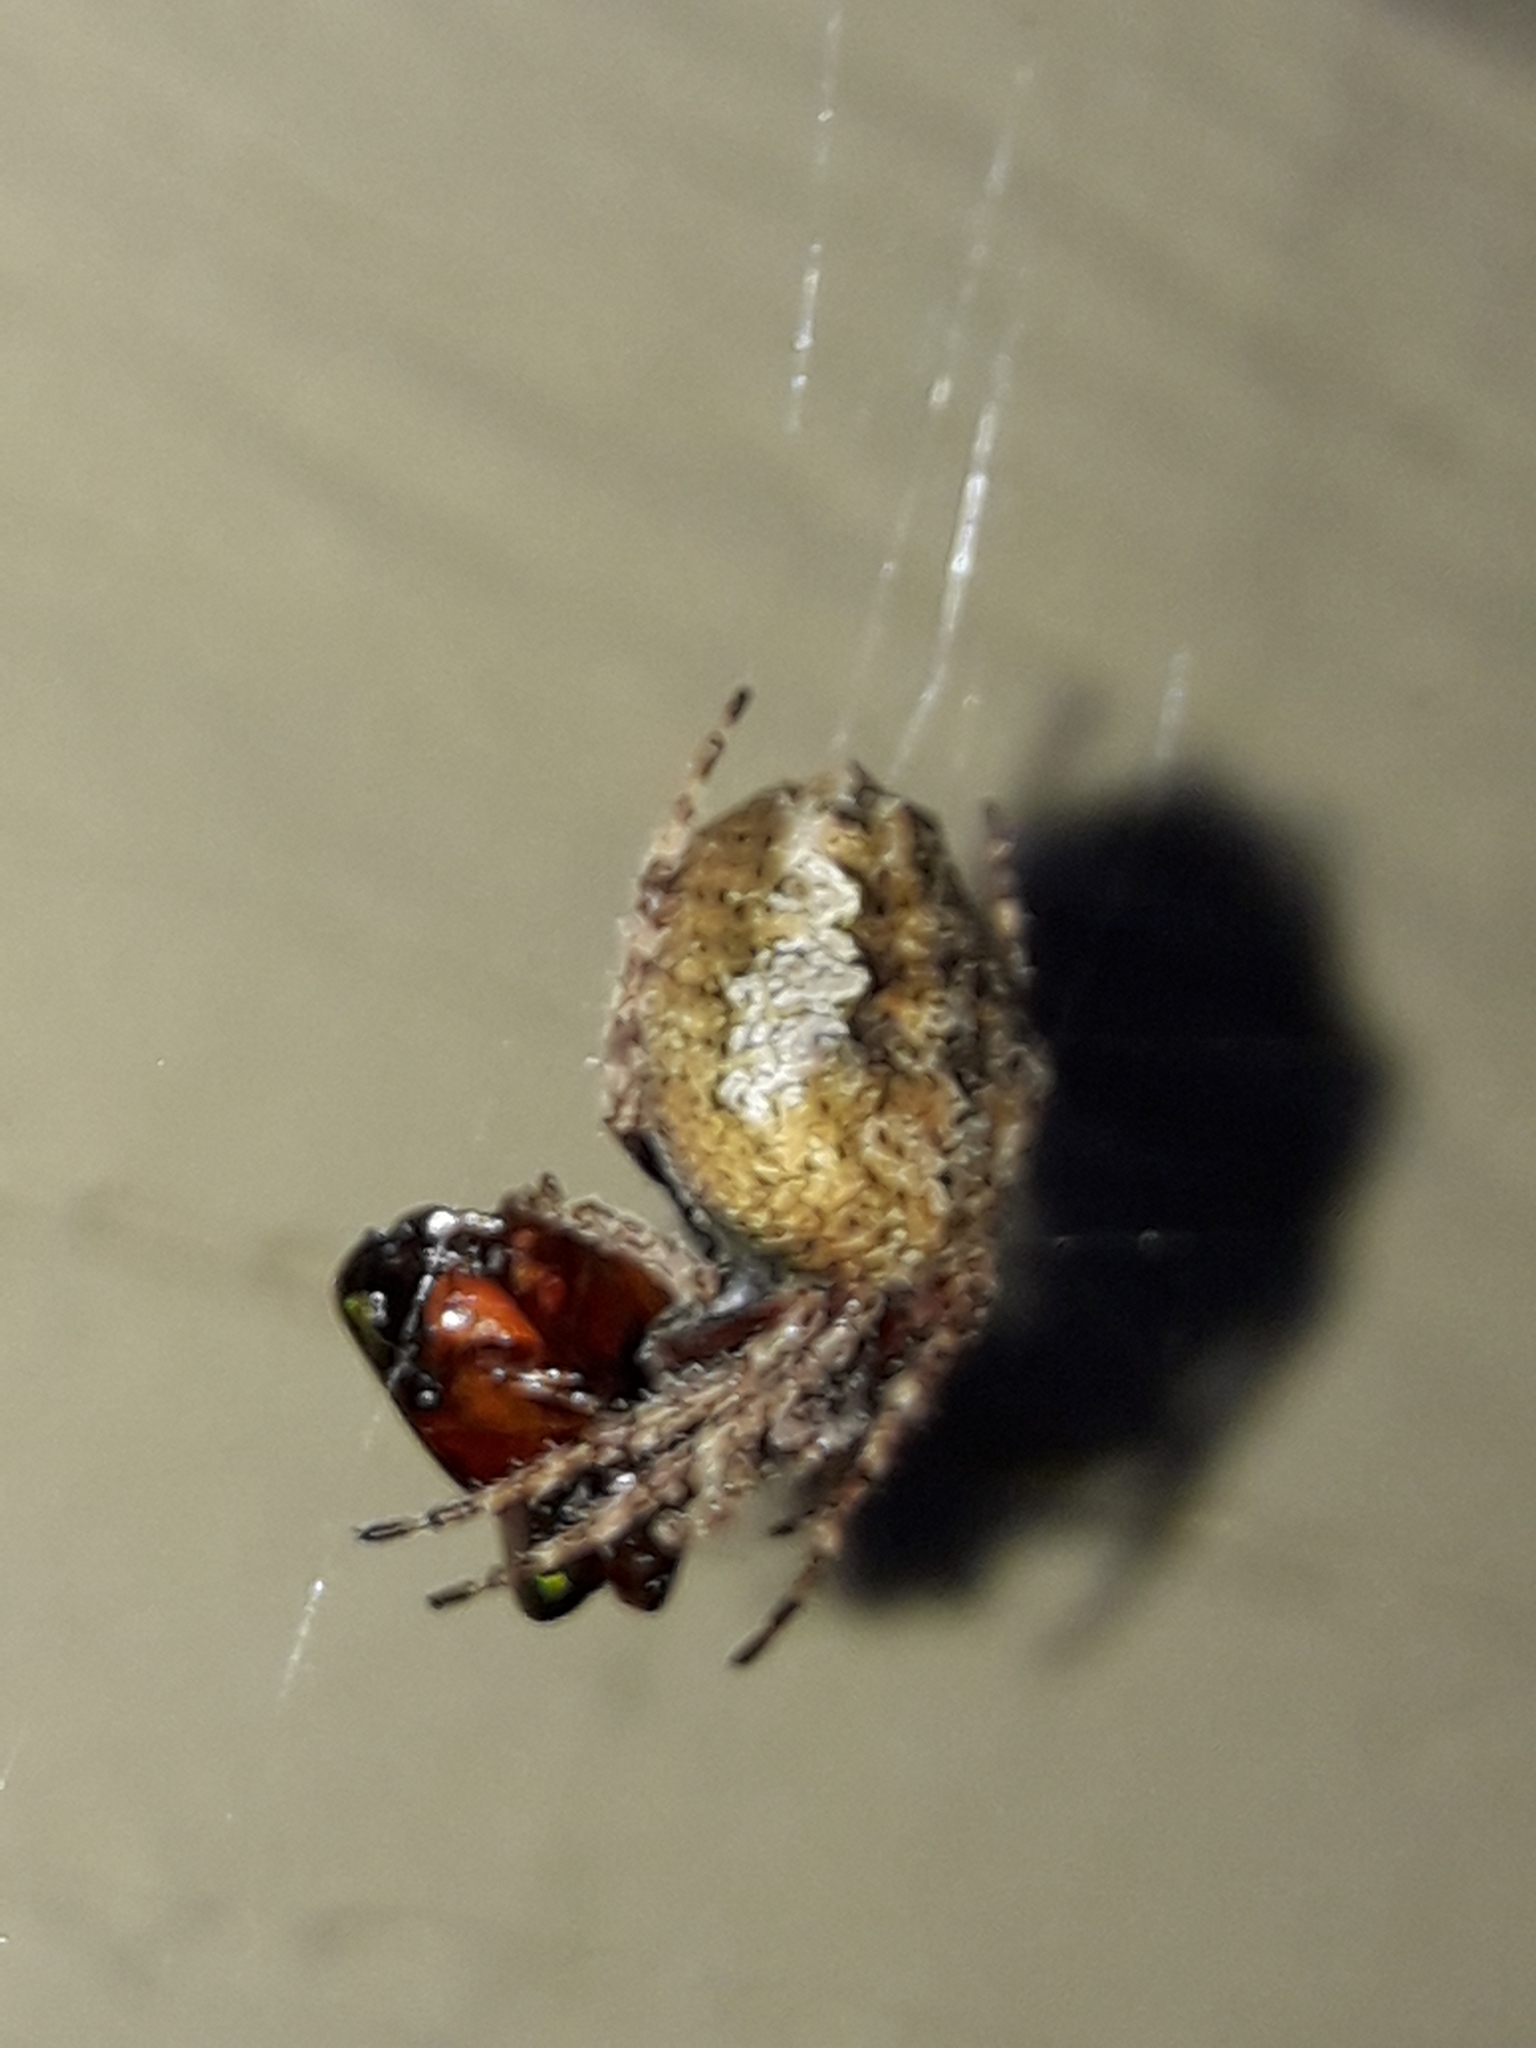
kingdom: Animalia
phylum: Arthropoda
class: Arachnida
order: Araneae
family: Araneidae
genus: Eriophora
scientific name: Eriophora pustulosa
